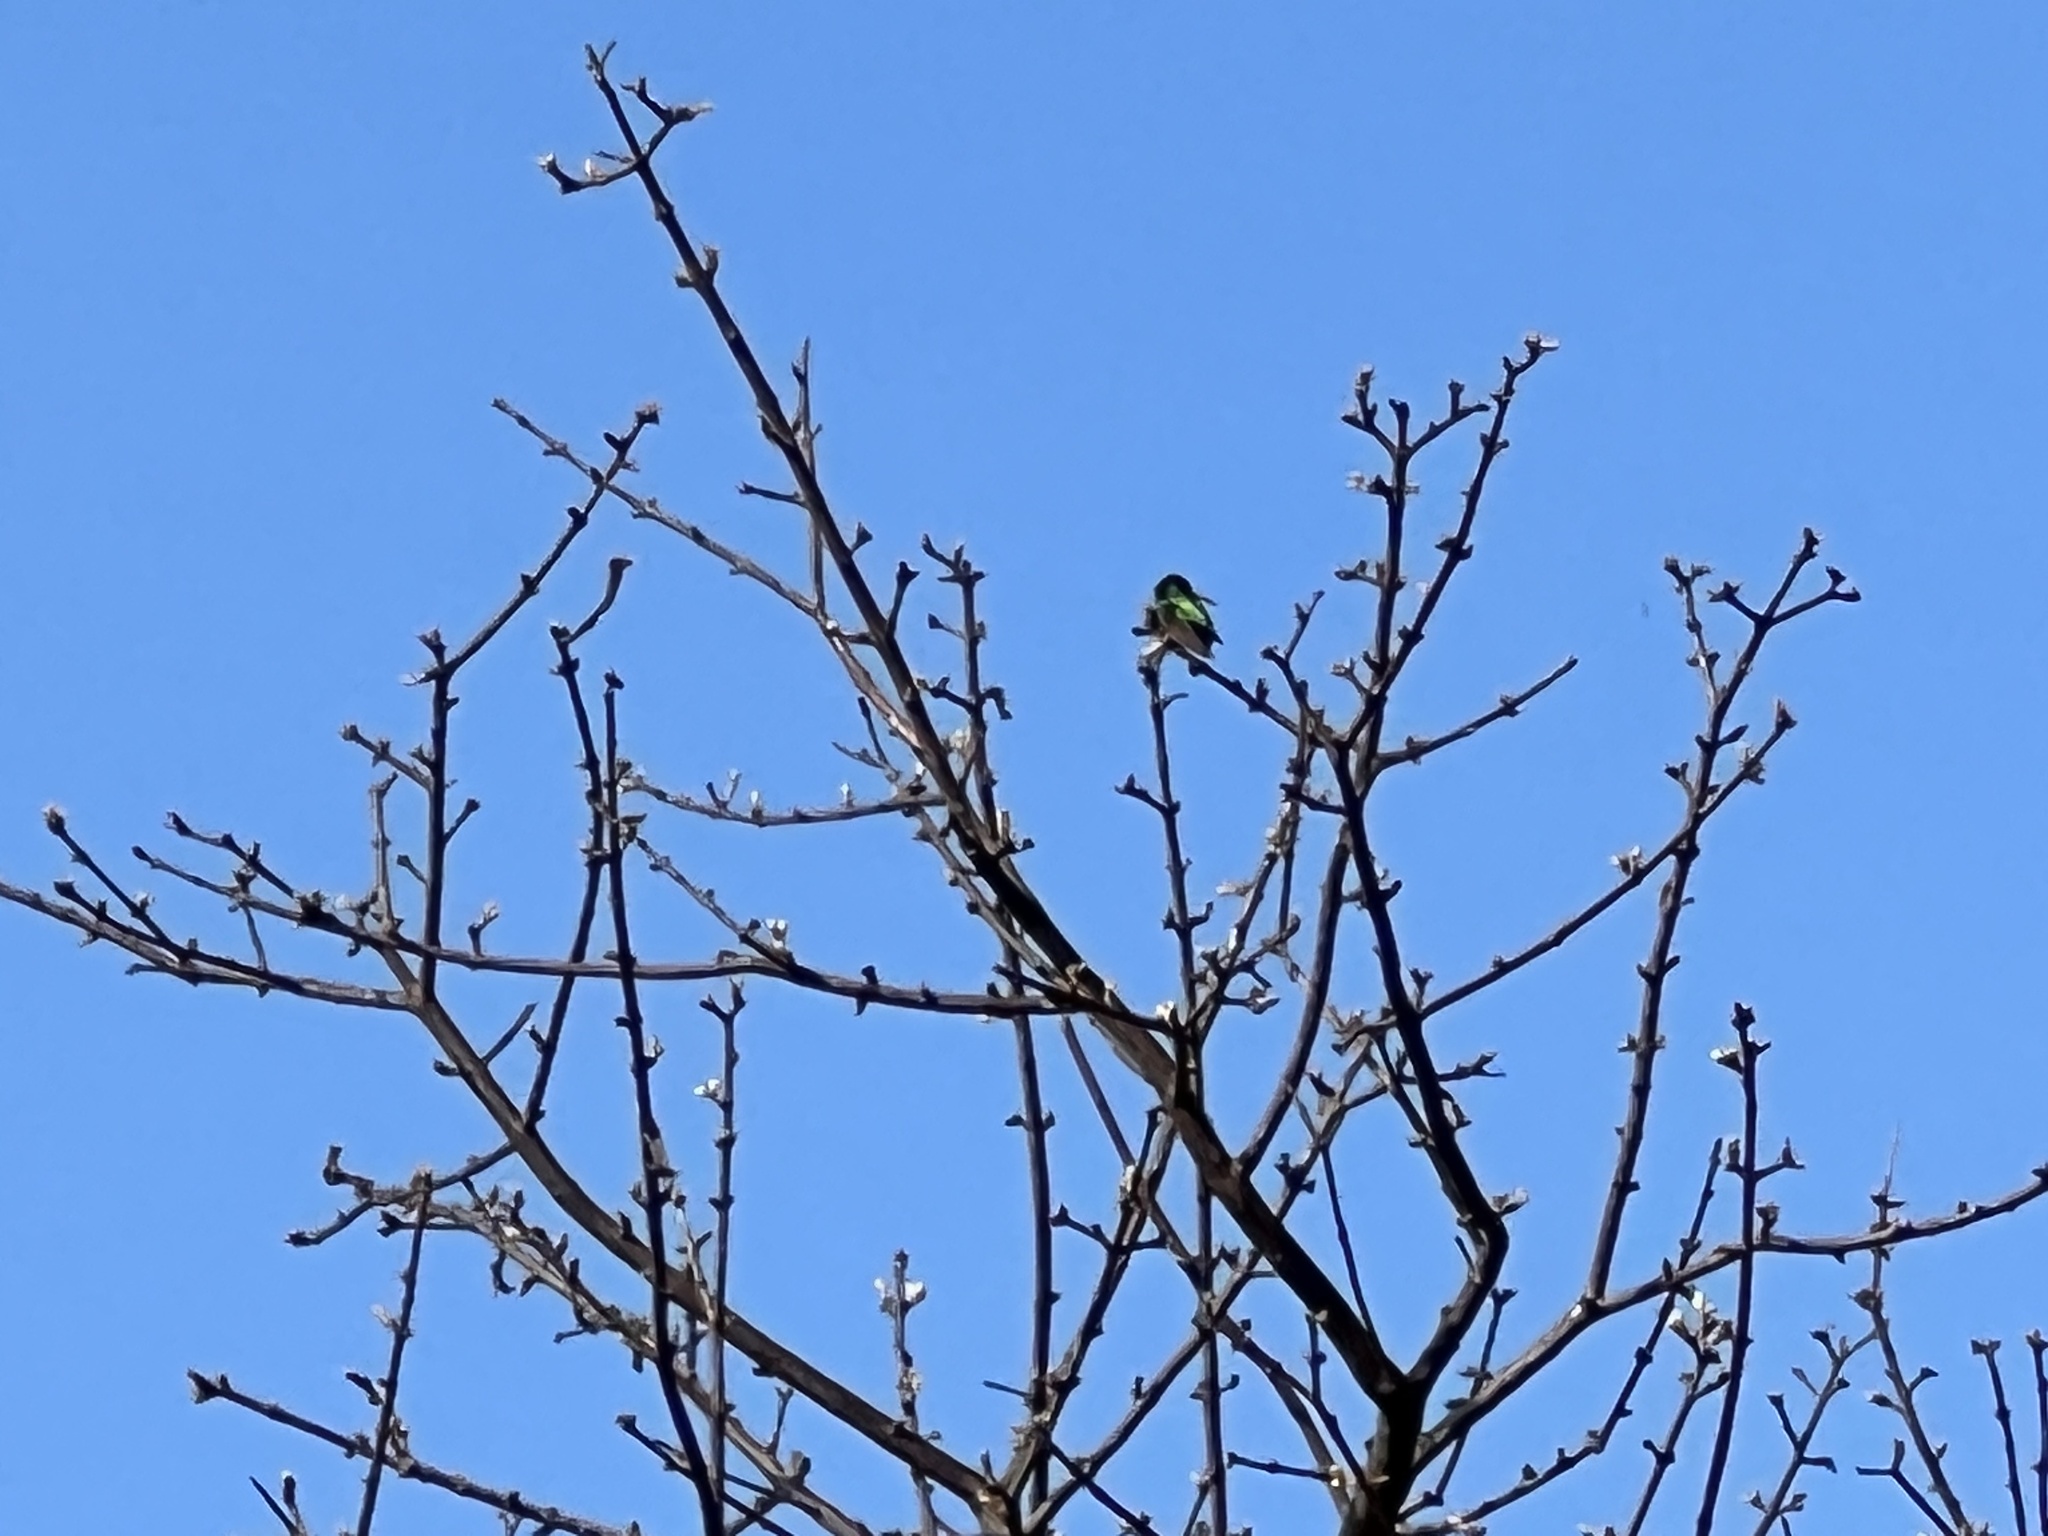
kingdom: Animalia
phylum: Chordata
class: Aves
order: Apodiformes
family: Trochilidae
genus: Chlorostilbon
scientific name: Chlorostilbon lucidus
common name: Glittering-bellied emerald
